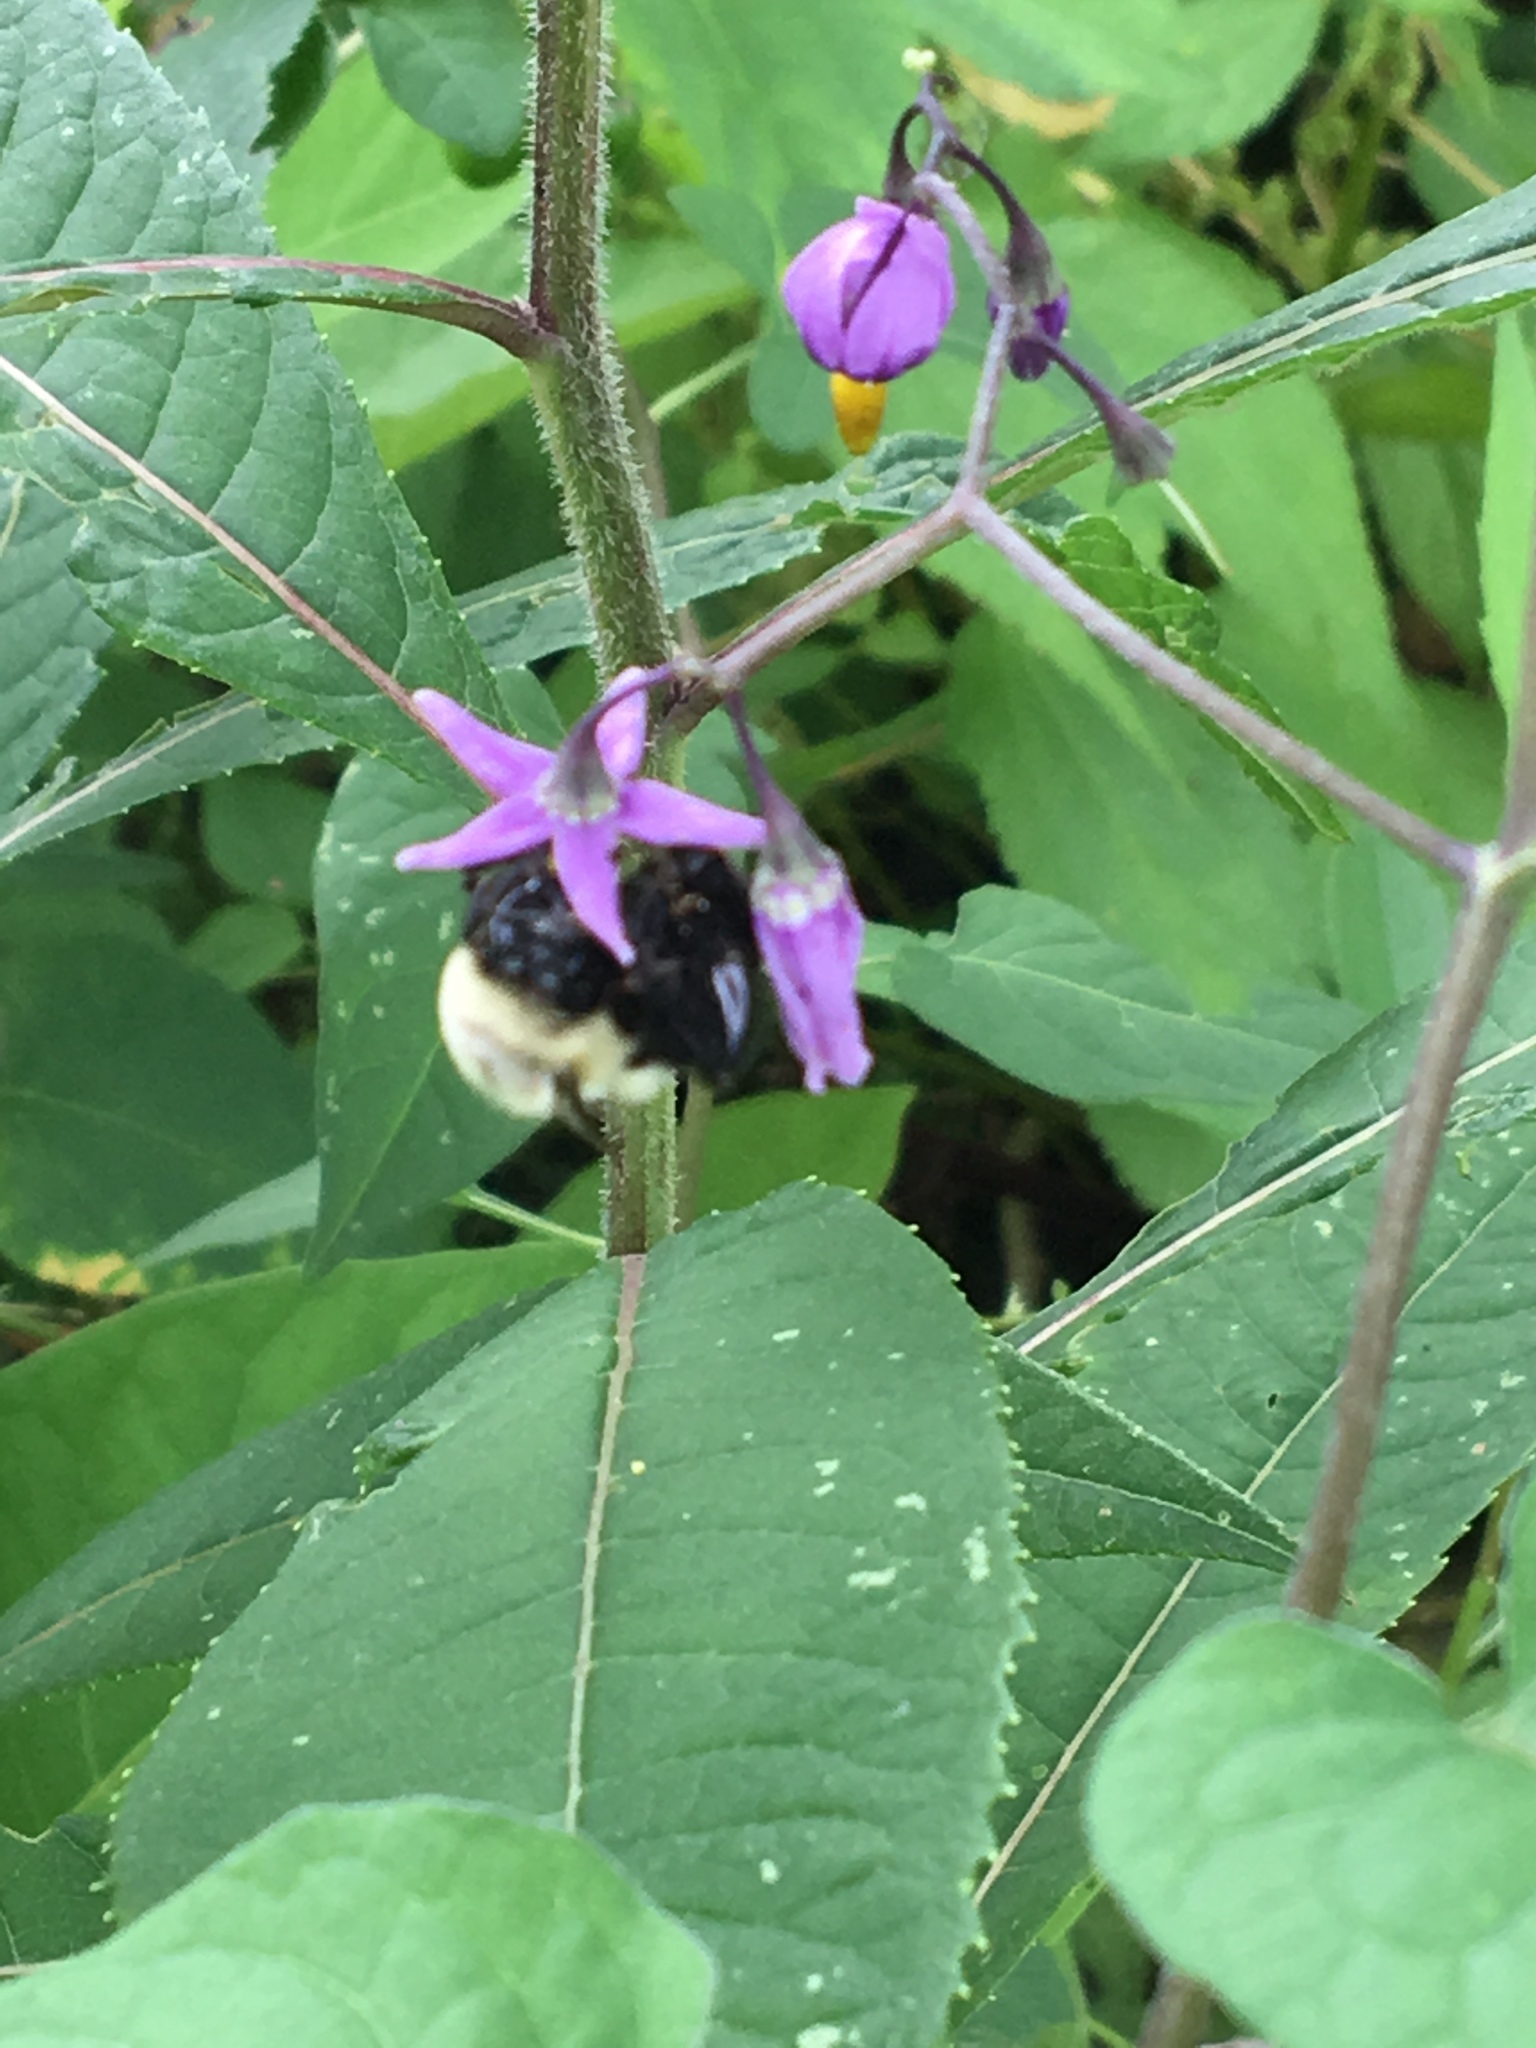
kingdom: Animalia
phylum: Arthropoda
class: Insecta
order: Hymenoptera
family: Apidae
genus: Bombus
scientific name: Bombus impatiens
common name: Common eastern bumble bee
